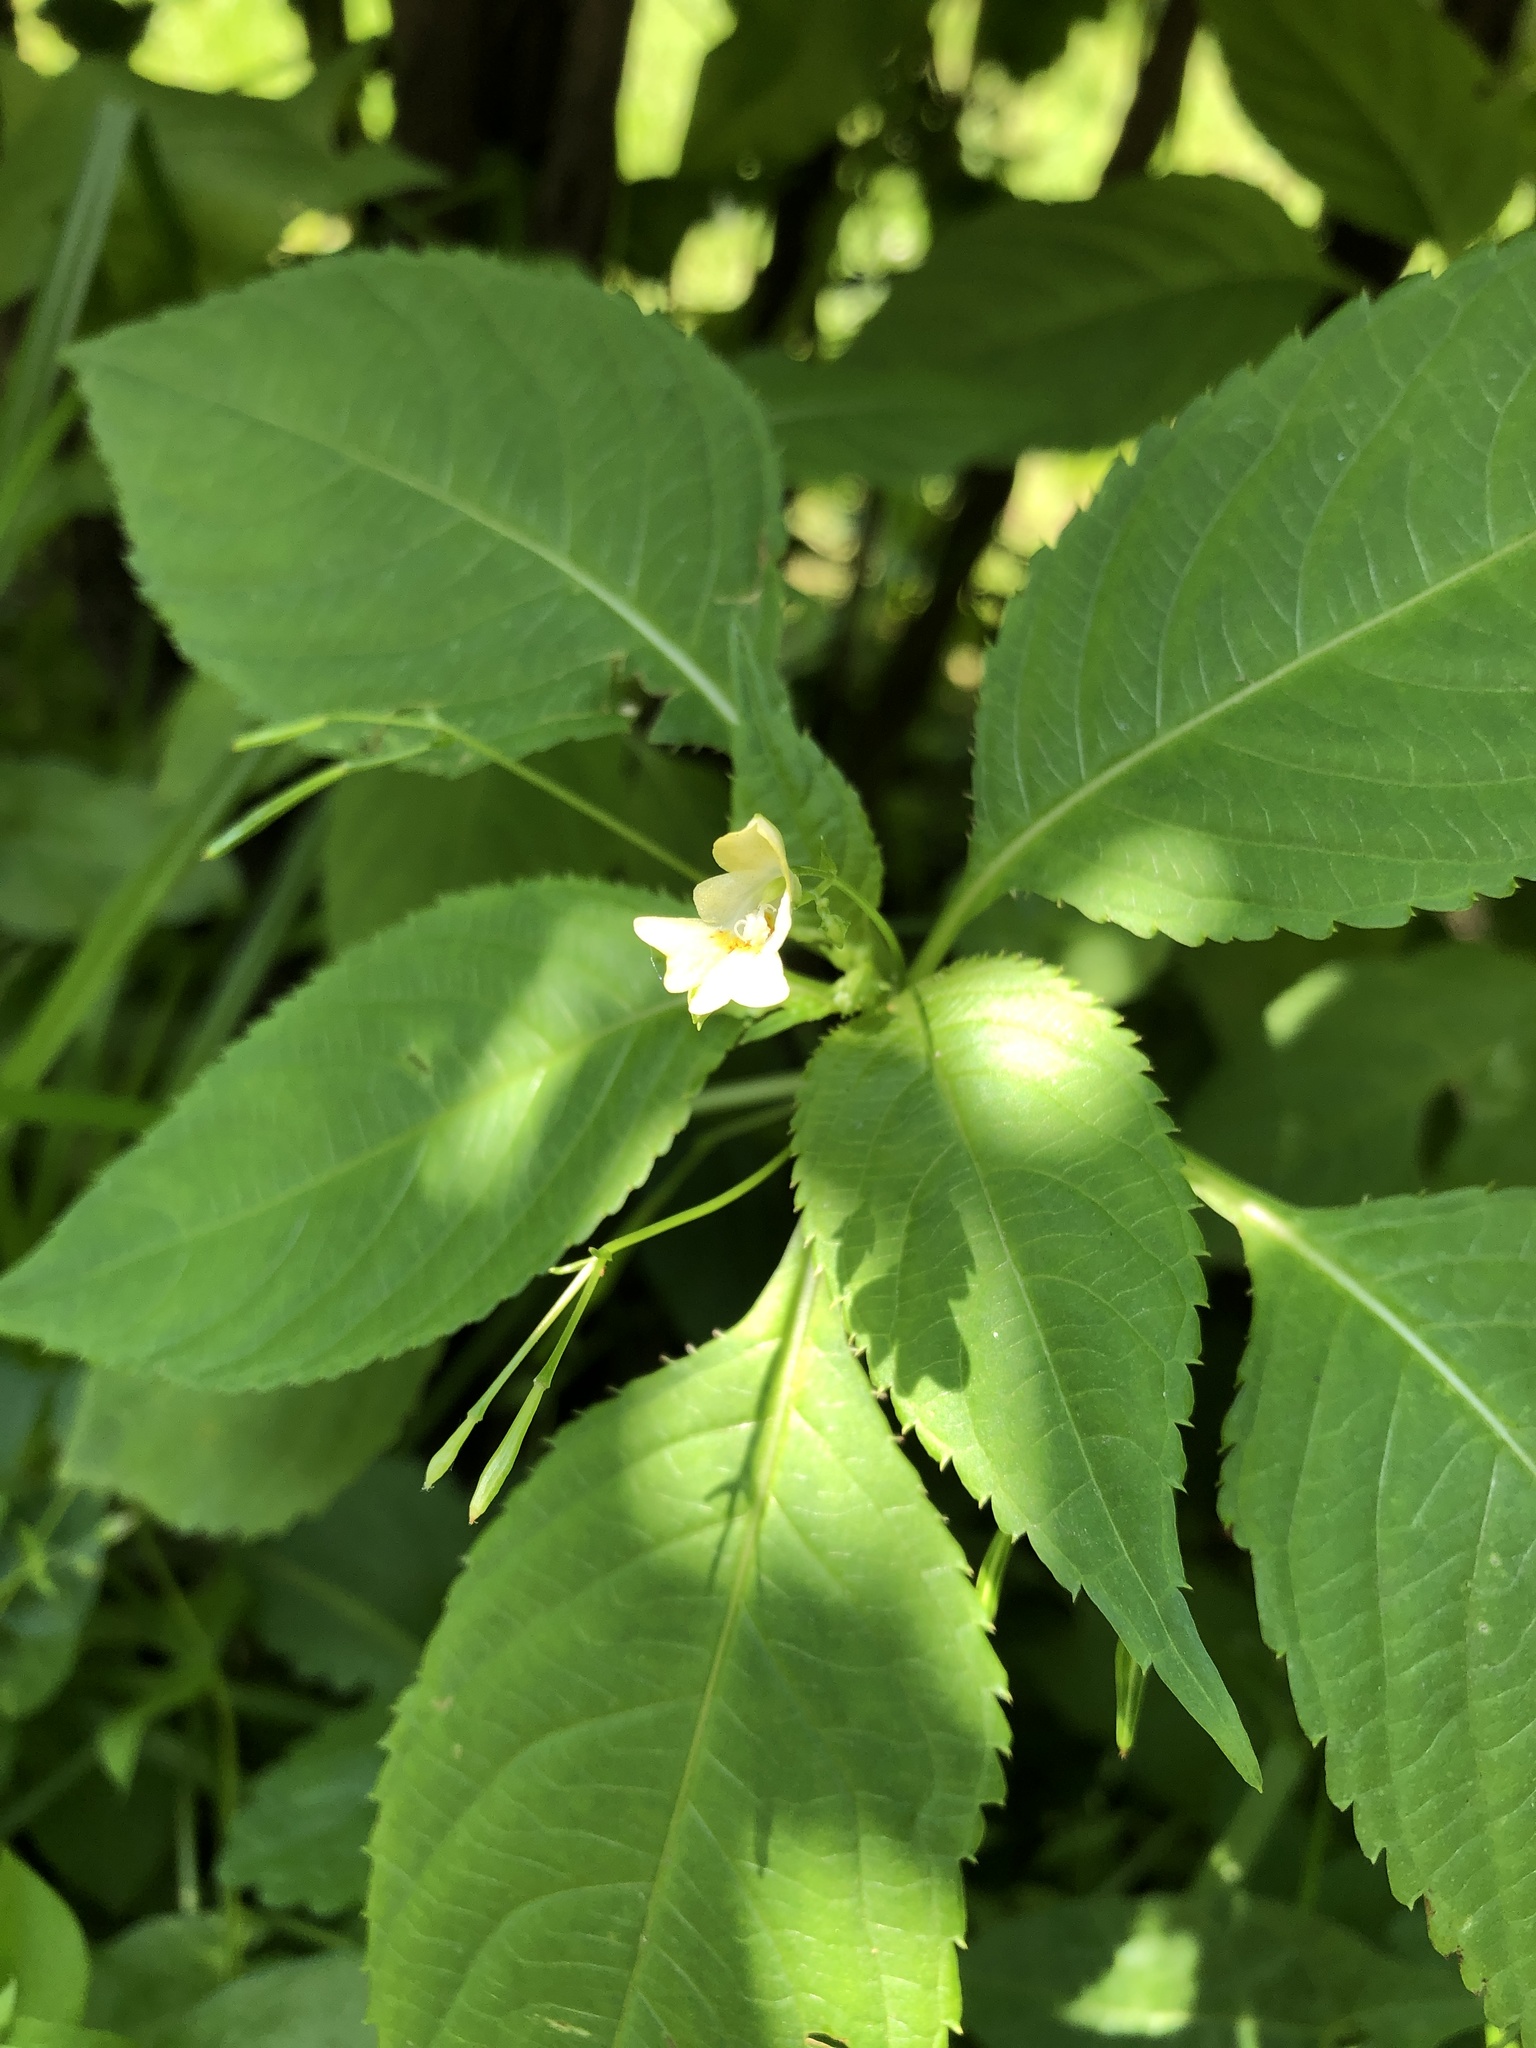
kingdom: Plantae
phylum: Tracheophyta
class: Magnoliopsida
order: Ericales
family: Balsaminaceae
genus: Impatiens
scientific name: Impatiens parviflora
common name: Small balsam
